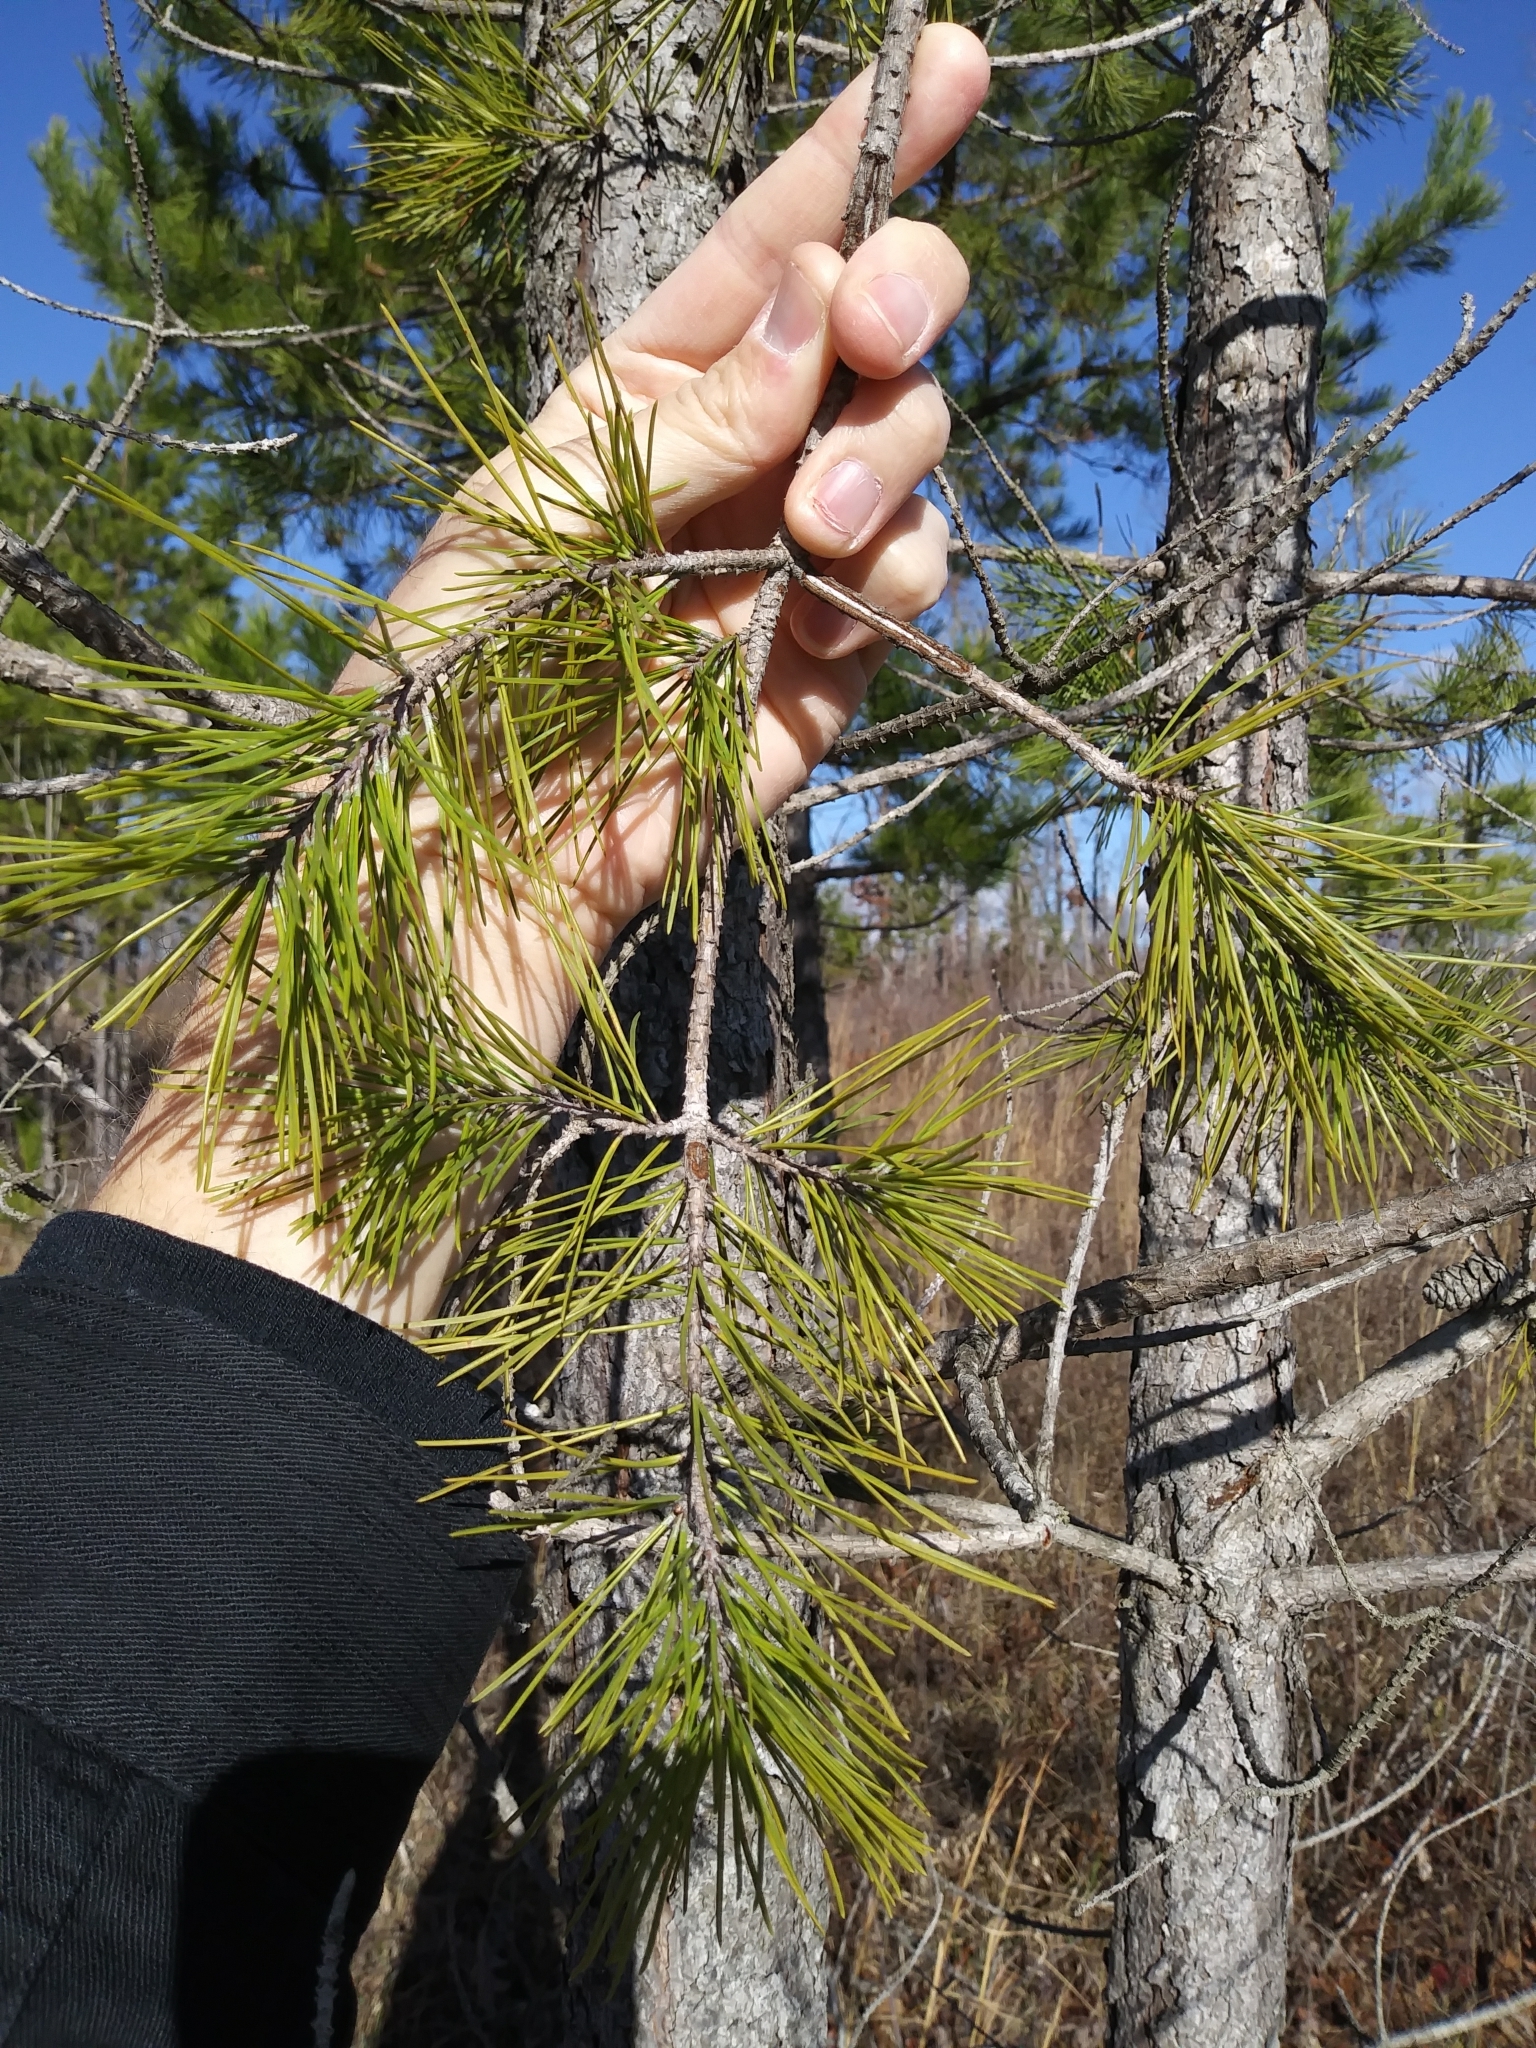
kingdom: Plantae
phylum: Tracheophyta
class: Pinopsida
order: Pinales
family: Pinaceae
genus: Pinus
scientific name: Pinus virginiana
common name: Scrub pine
